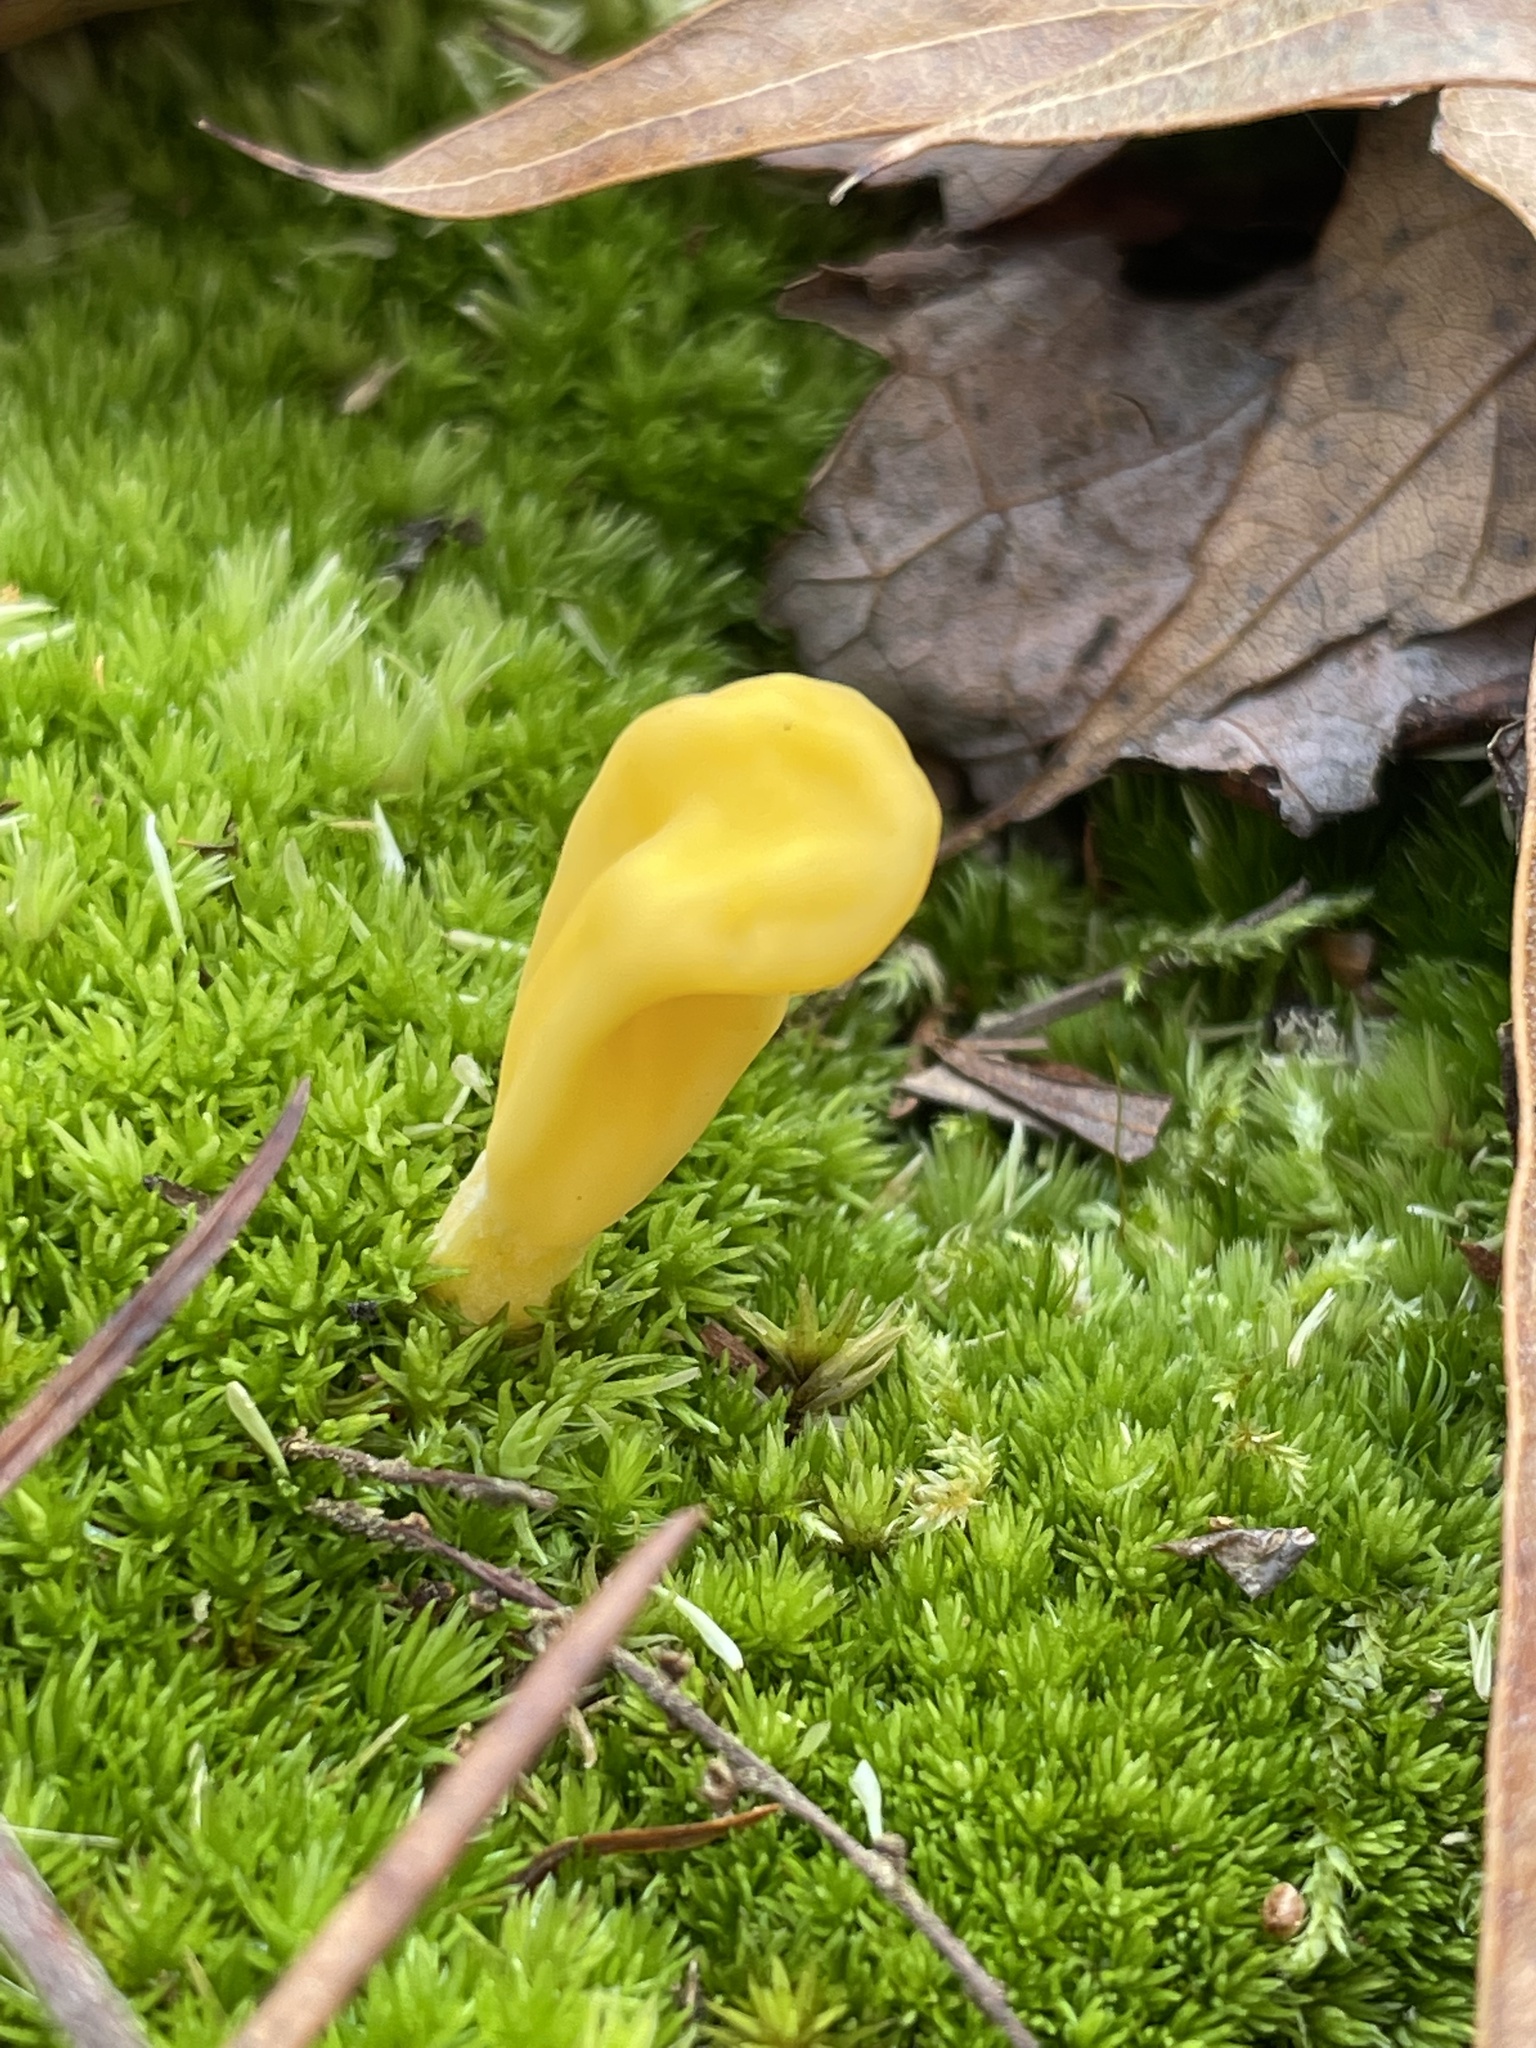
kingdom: Fungi
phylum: Ascomycota
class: Neolectomycetes
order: Neolectales
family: Neolectaceae
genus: Neolecta
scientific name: Neolecta
